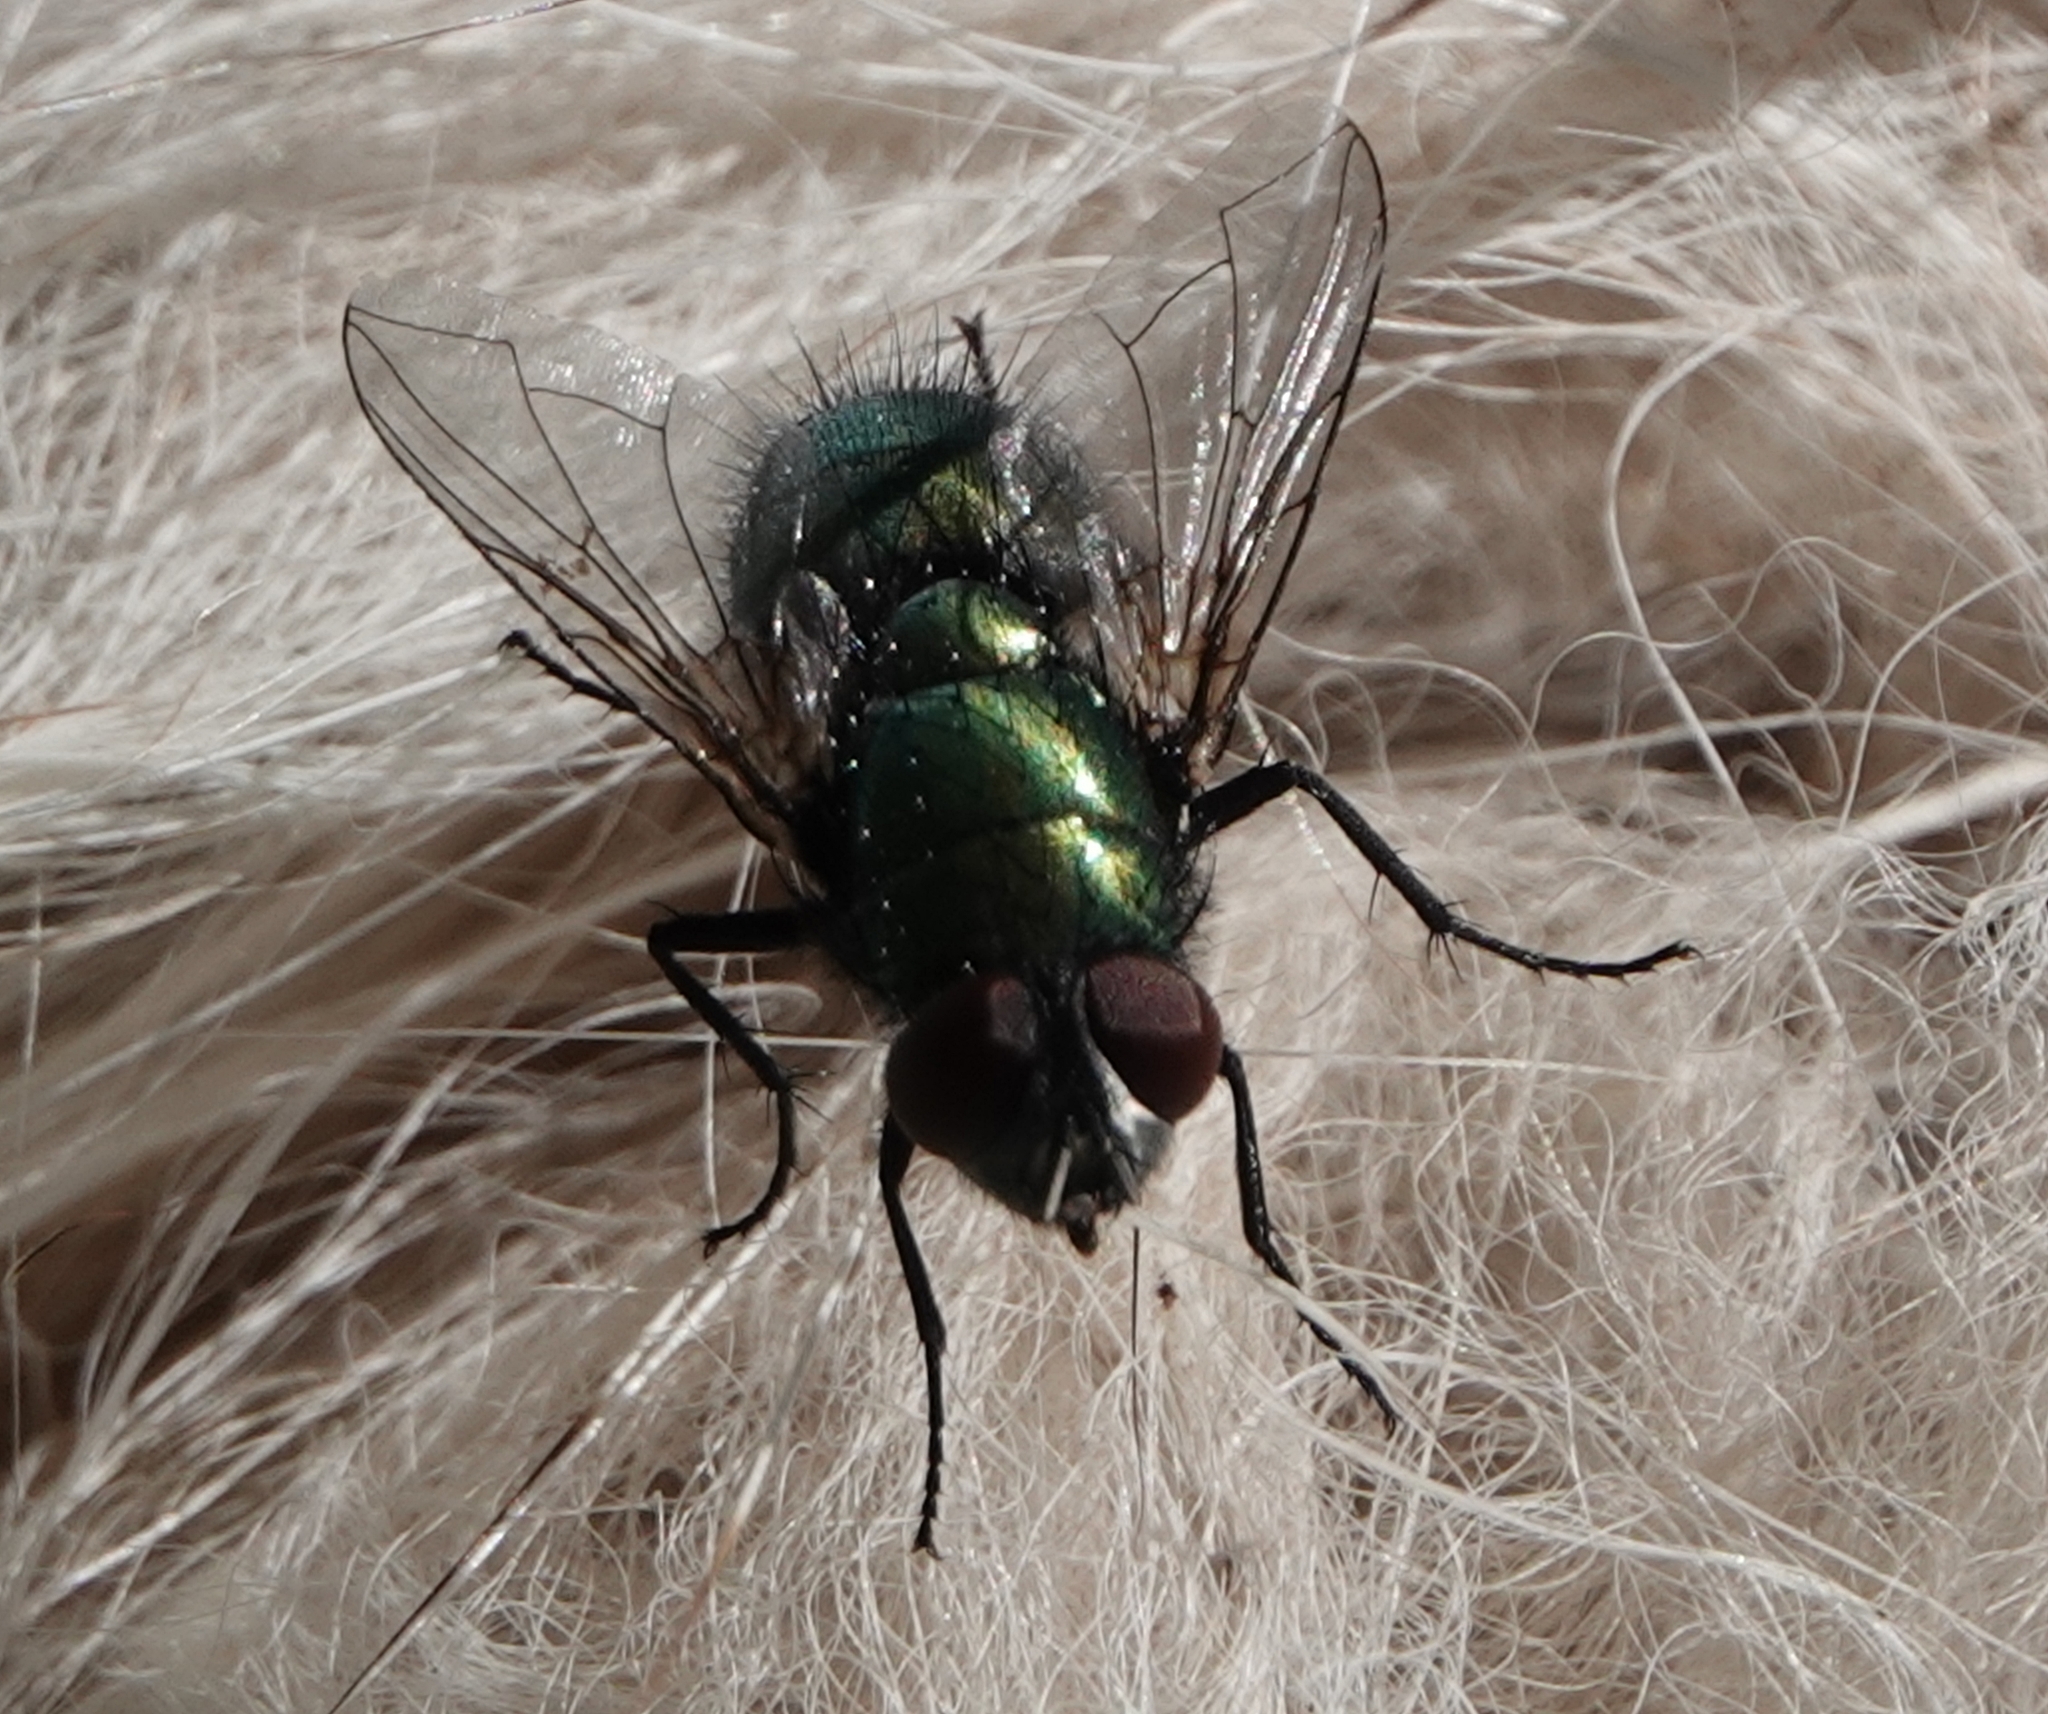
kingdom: Animalia
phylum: Arthropoda
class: Insecta
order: Diptera
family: Calliphoridae
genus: Lucilia
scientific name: Lucilia sericata
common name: Blow fly
